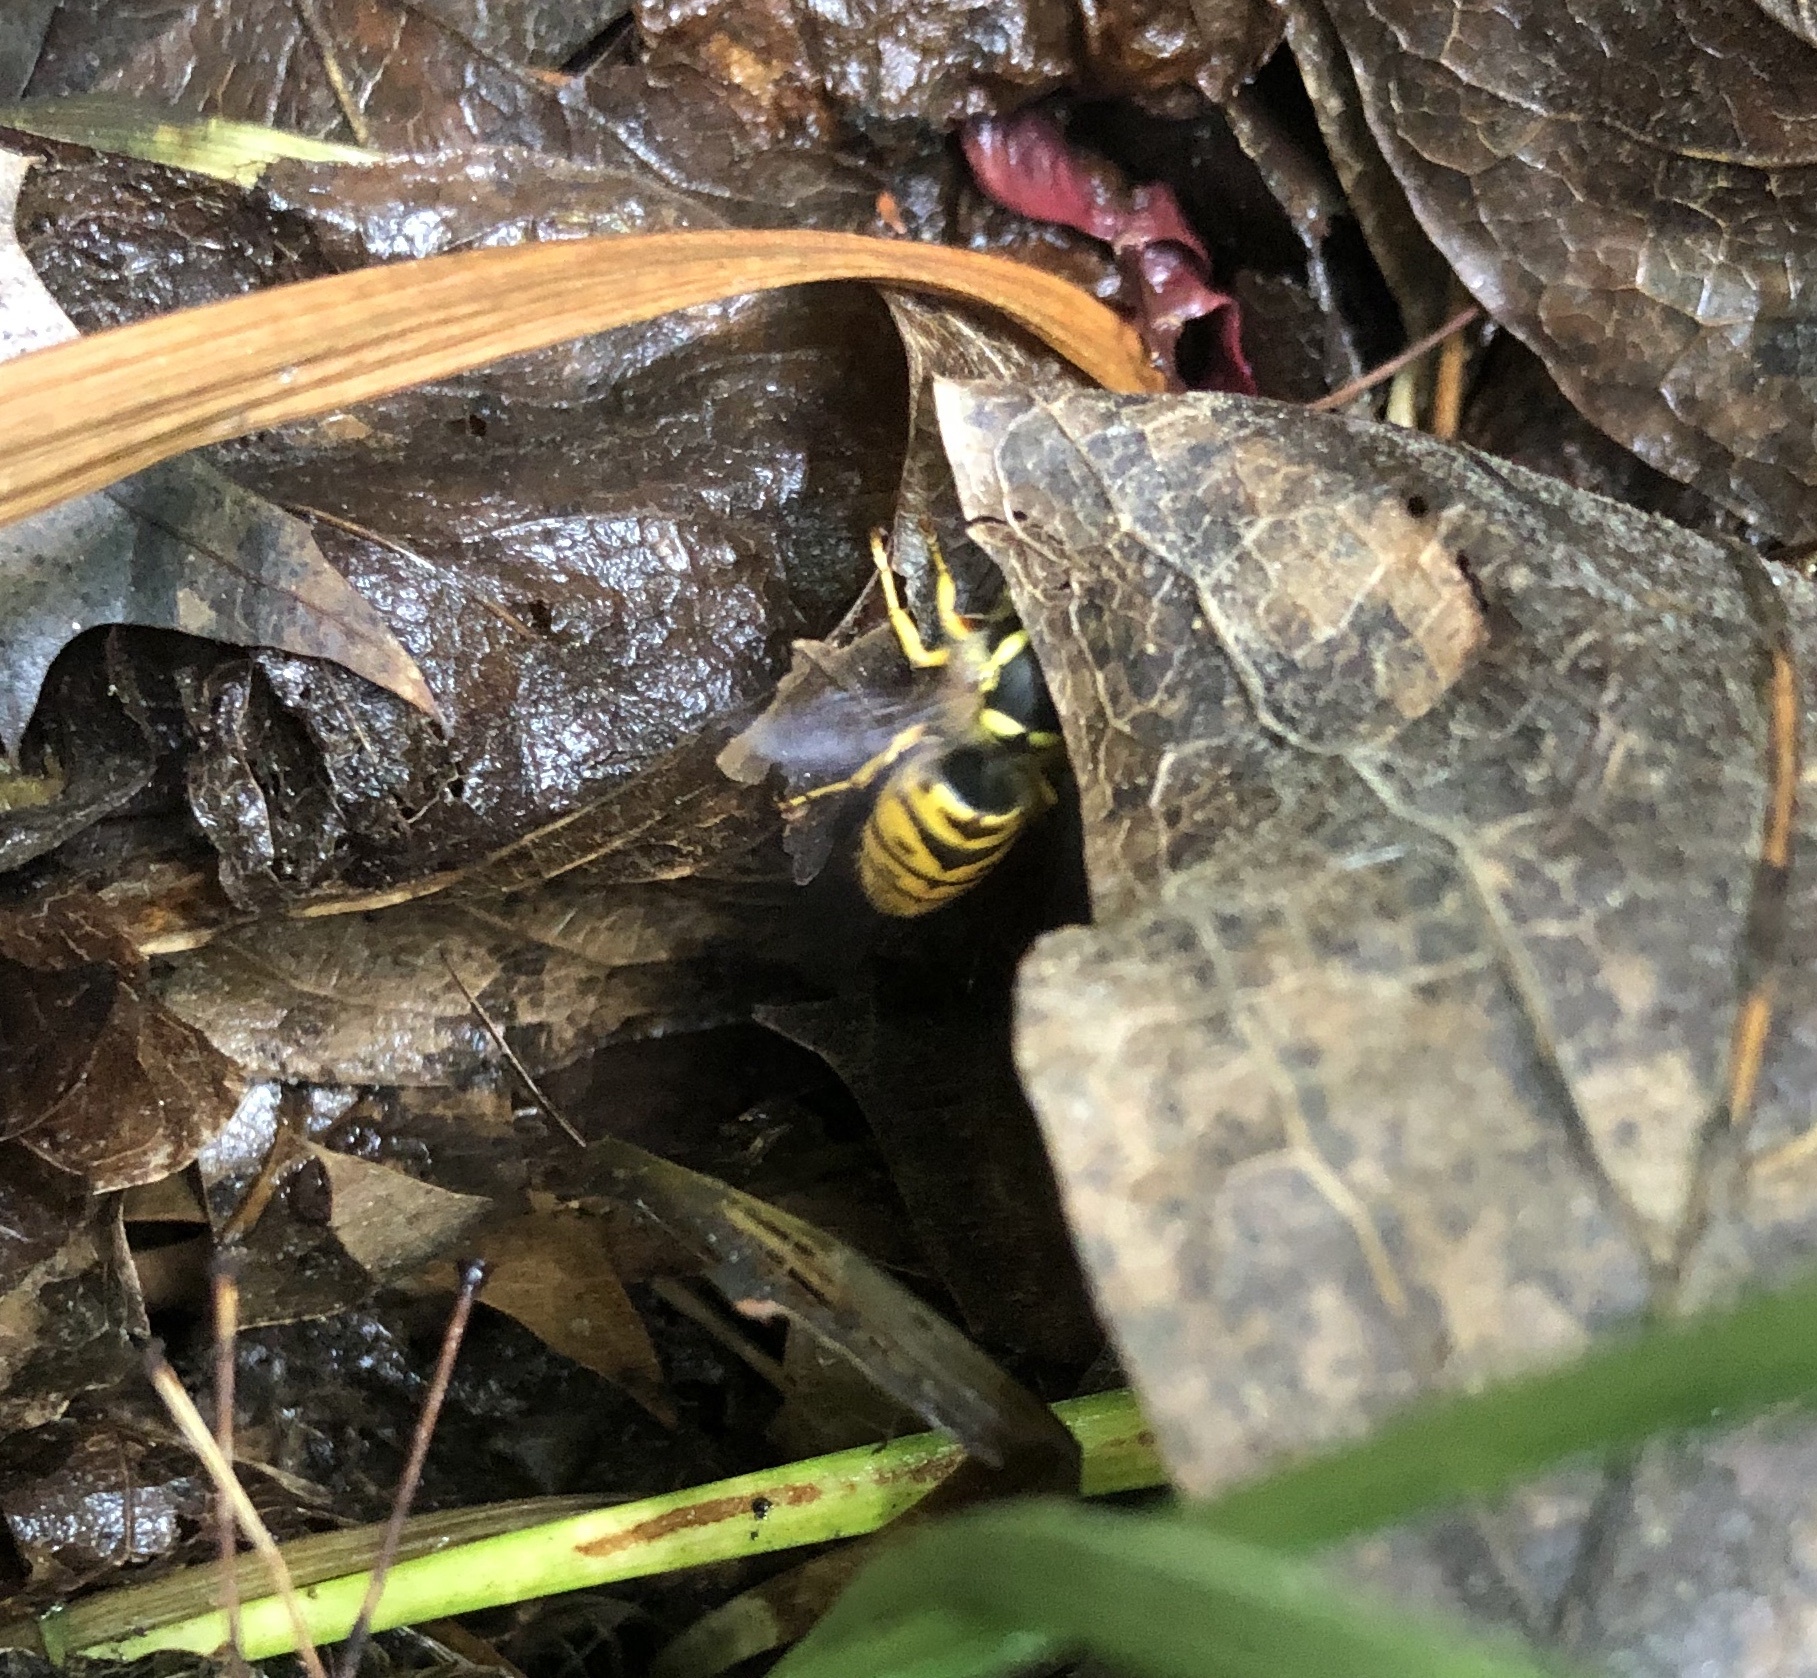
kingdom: Animalia
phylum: Arthropoda
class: Insecta
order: Hymenoptera
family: Vespidae
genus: Vespula
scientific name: Vespula maculifrons
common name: Eastern yellowjacket
